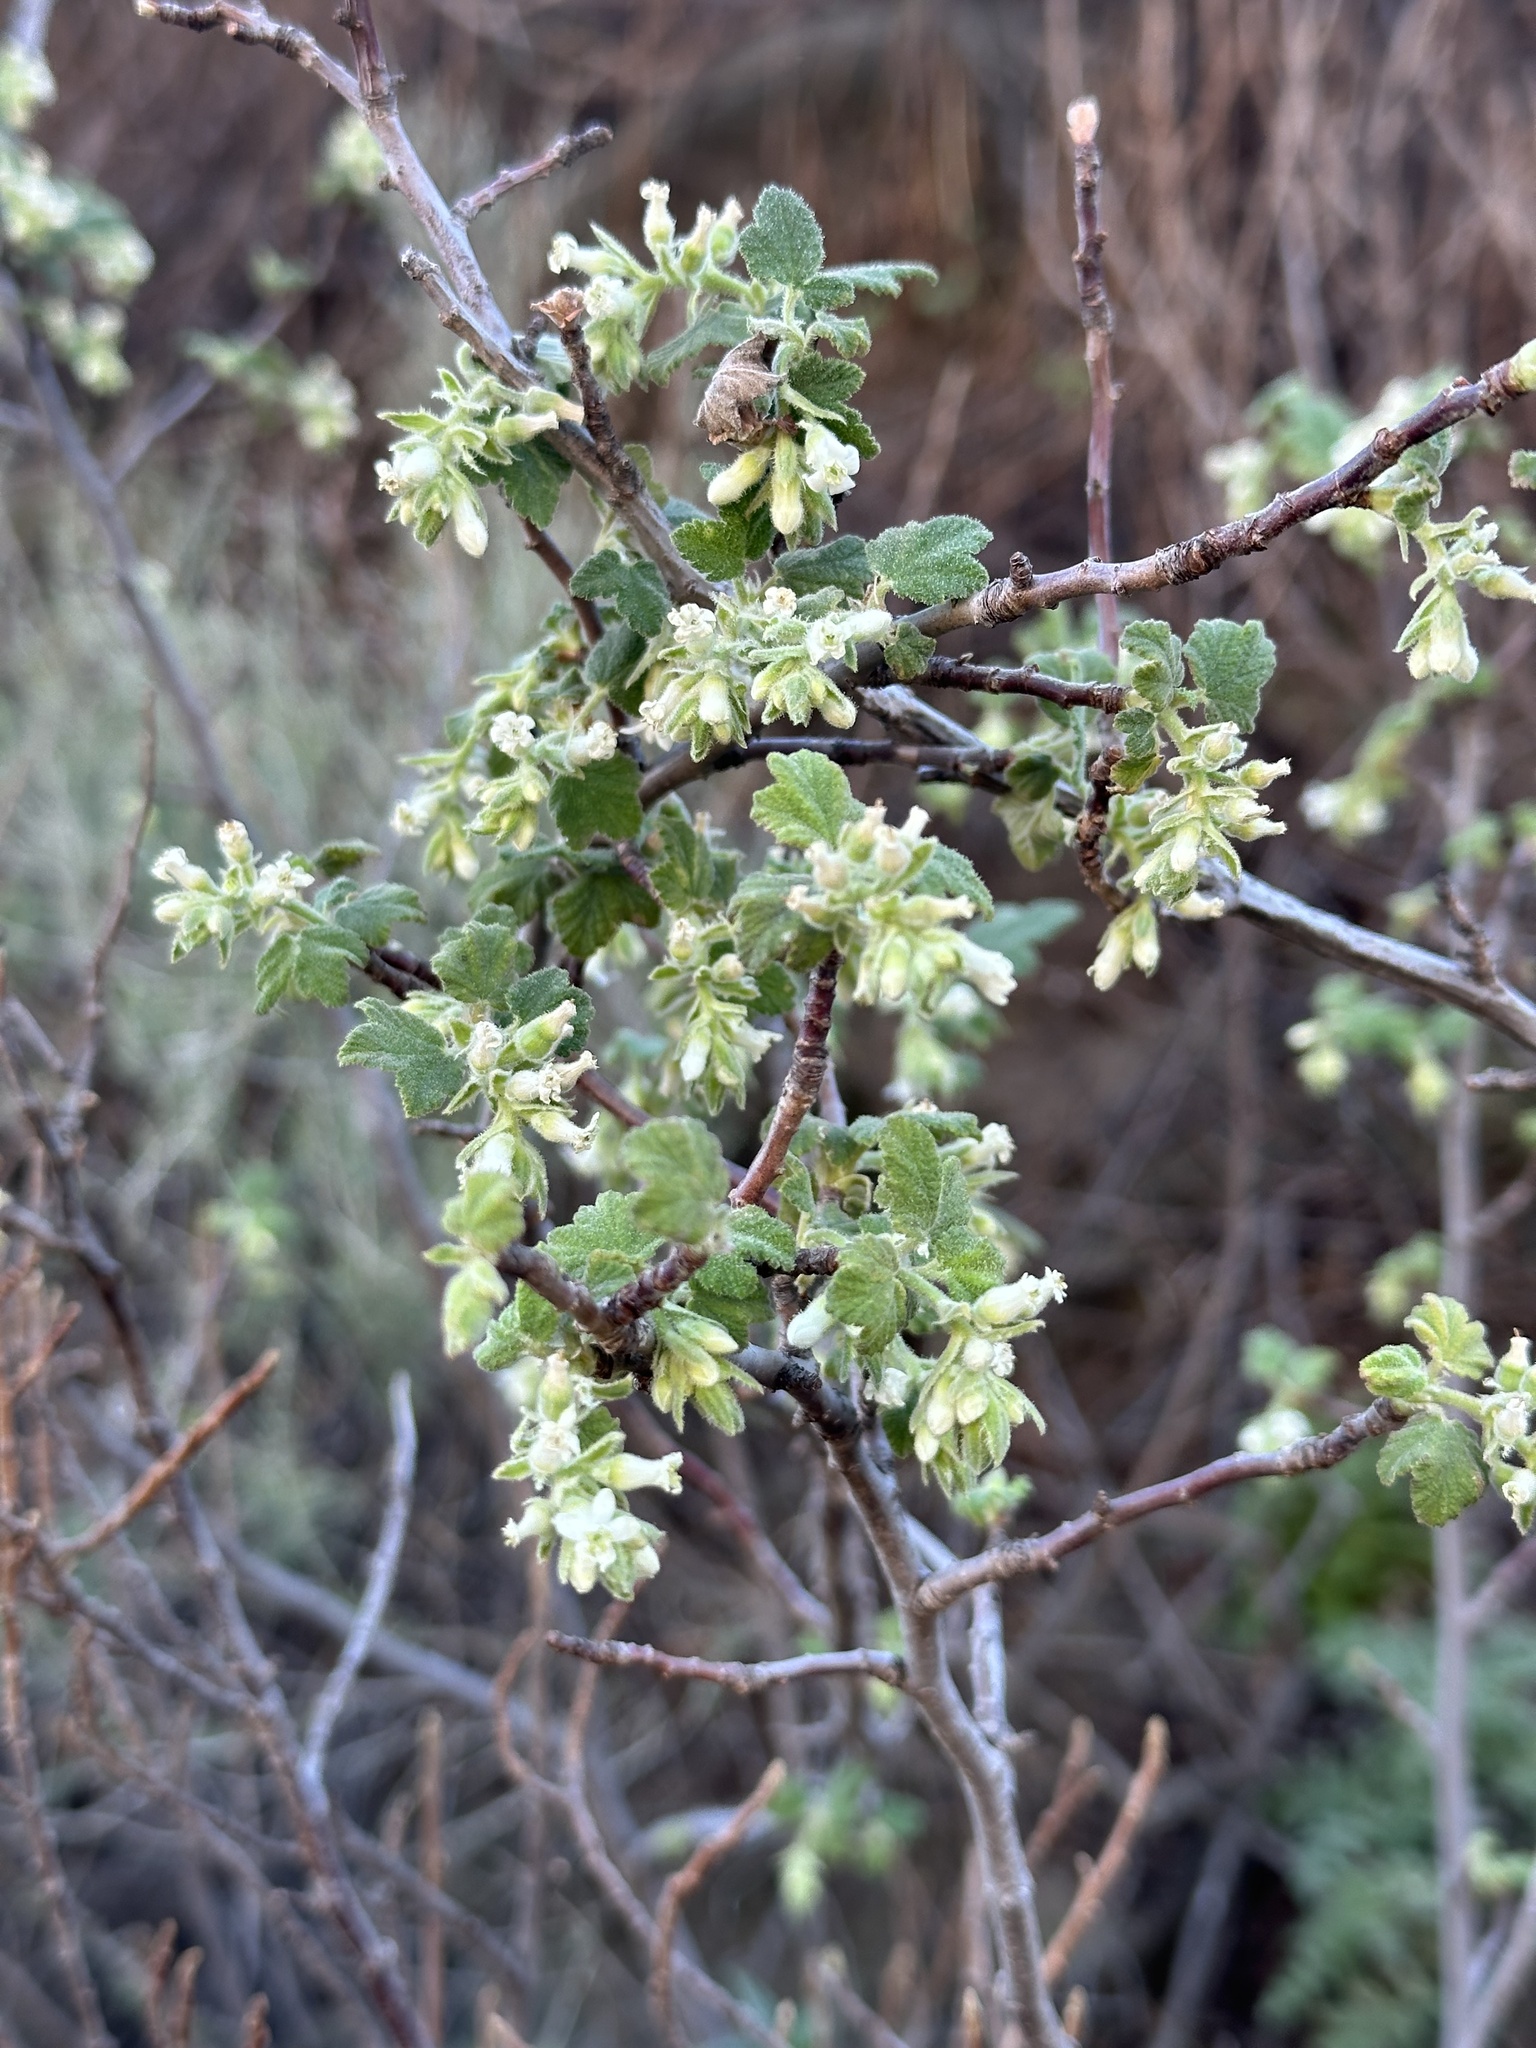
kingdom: Plantae
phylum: Tracheophyta
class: Magnoliopsida
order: Saxifragales
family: Grossulariaceae
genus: Ribes
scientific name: Ribes indecorum
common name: White-flower currant
